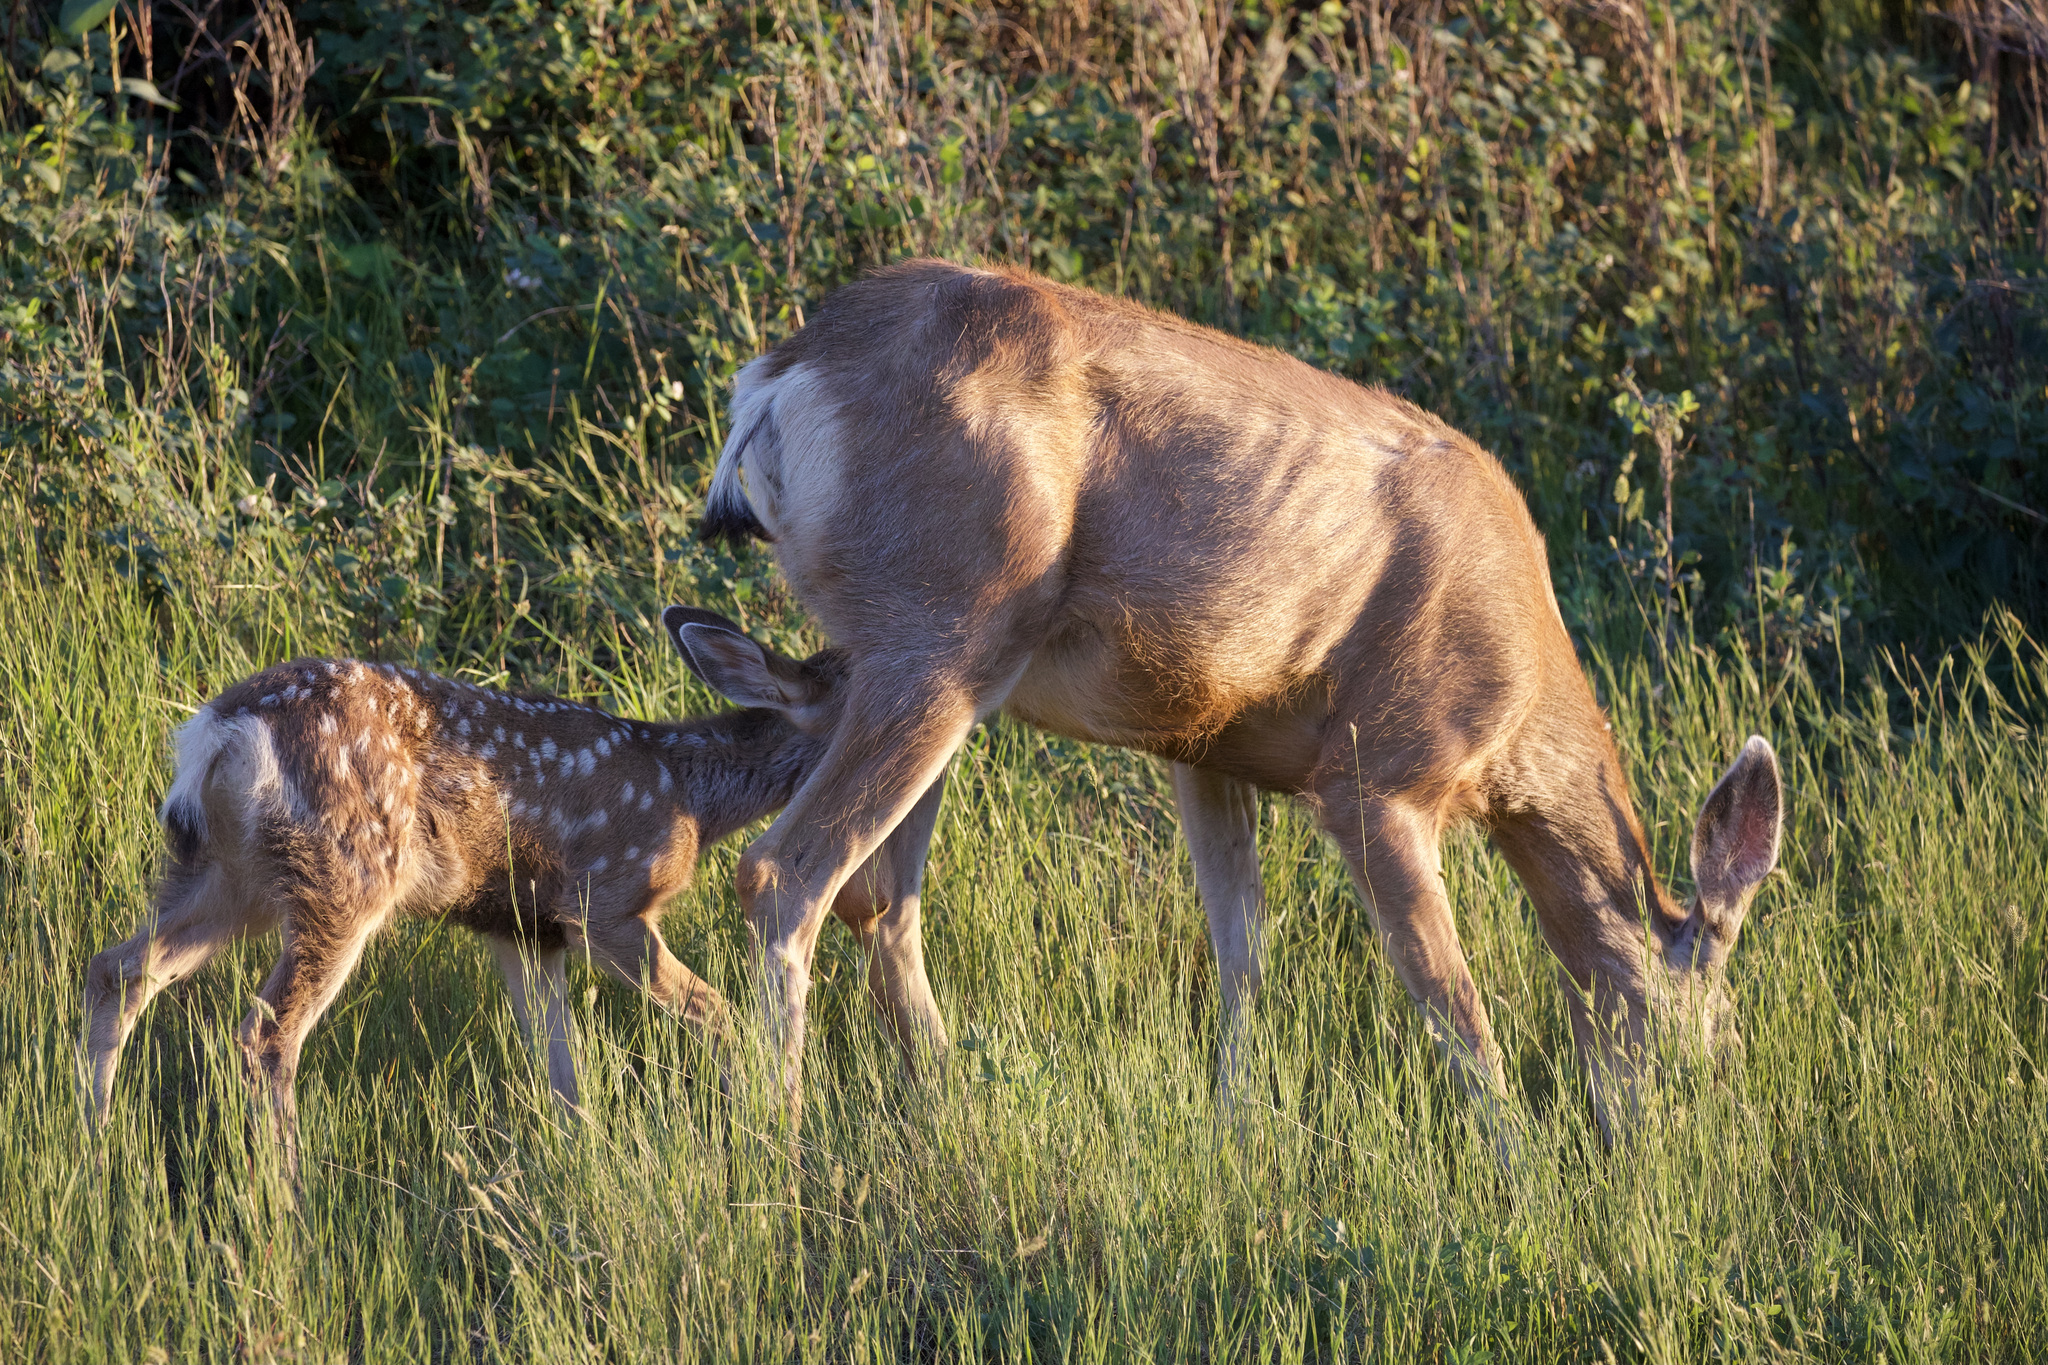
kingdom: Animalia
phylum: Chordata
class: Mammalia
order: Artiodactyla
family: Cervidae
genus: Odocoileus
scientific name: Odocoileus hemionus
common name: Mule deer
